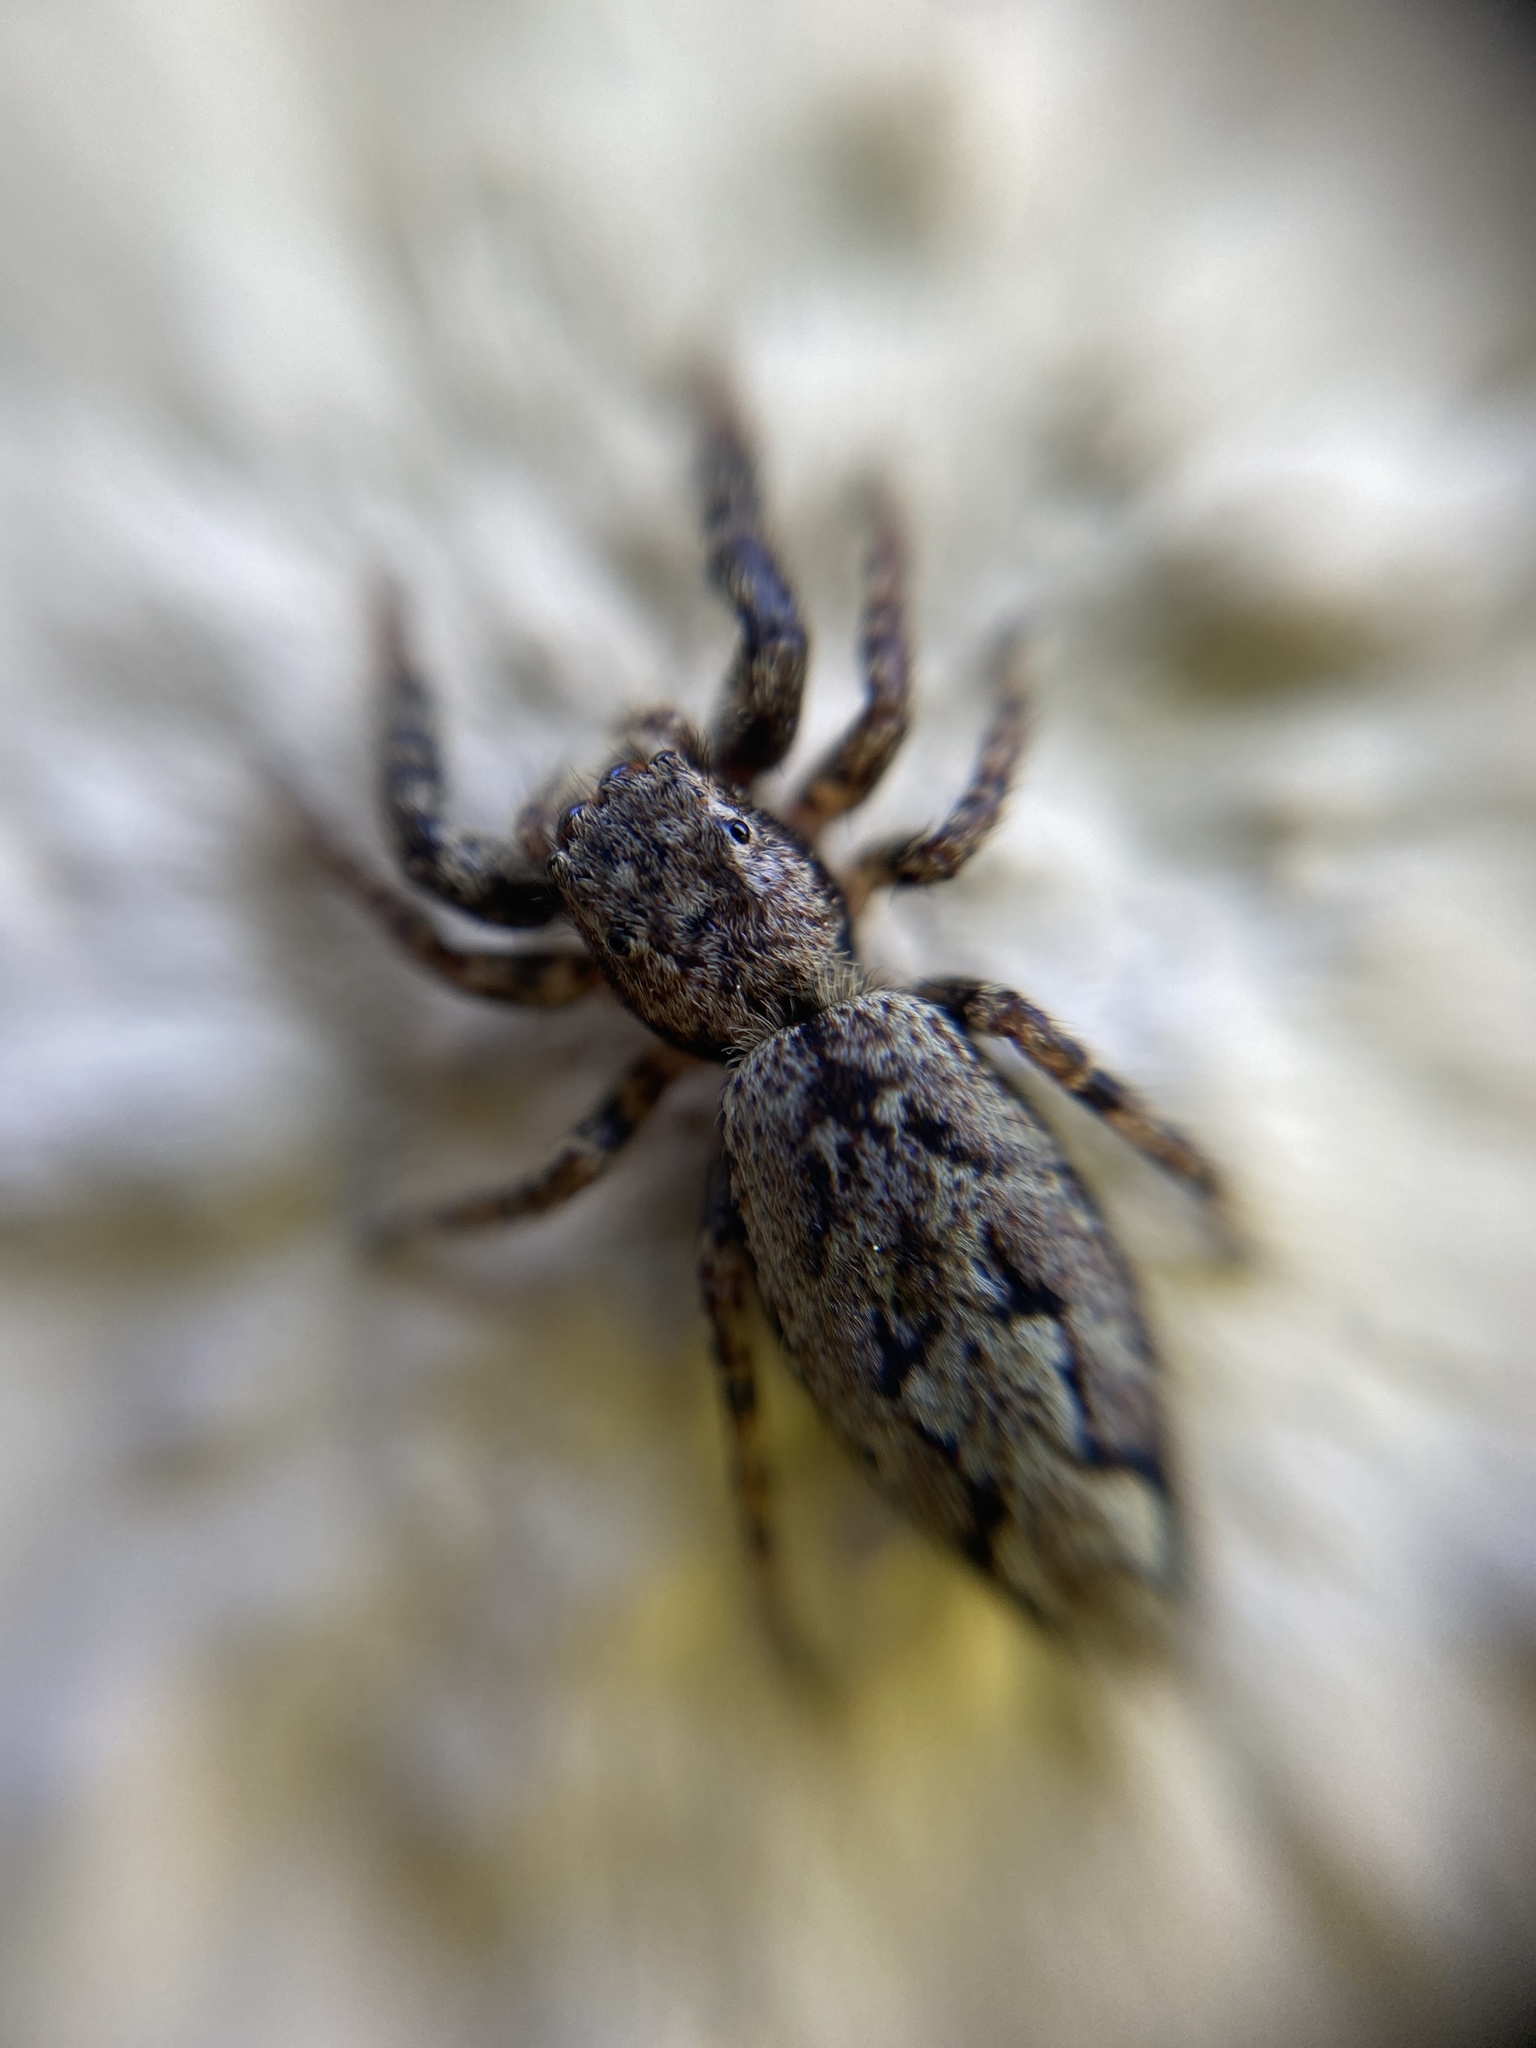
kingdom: Animalia
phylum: Arthropoda
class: Arachnida
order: Araneae
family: Salticidae
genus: Marpissa
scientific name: Marpissa muscosa
